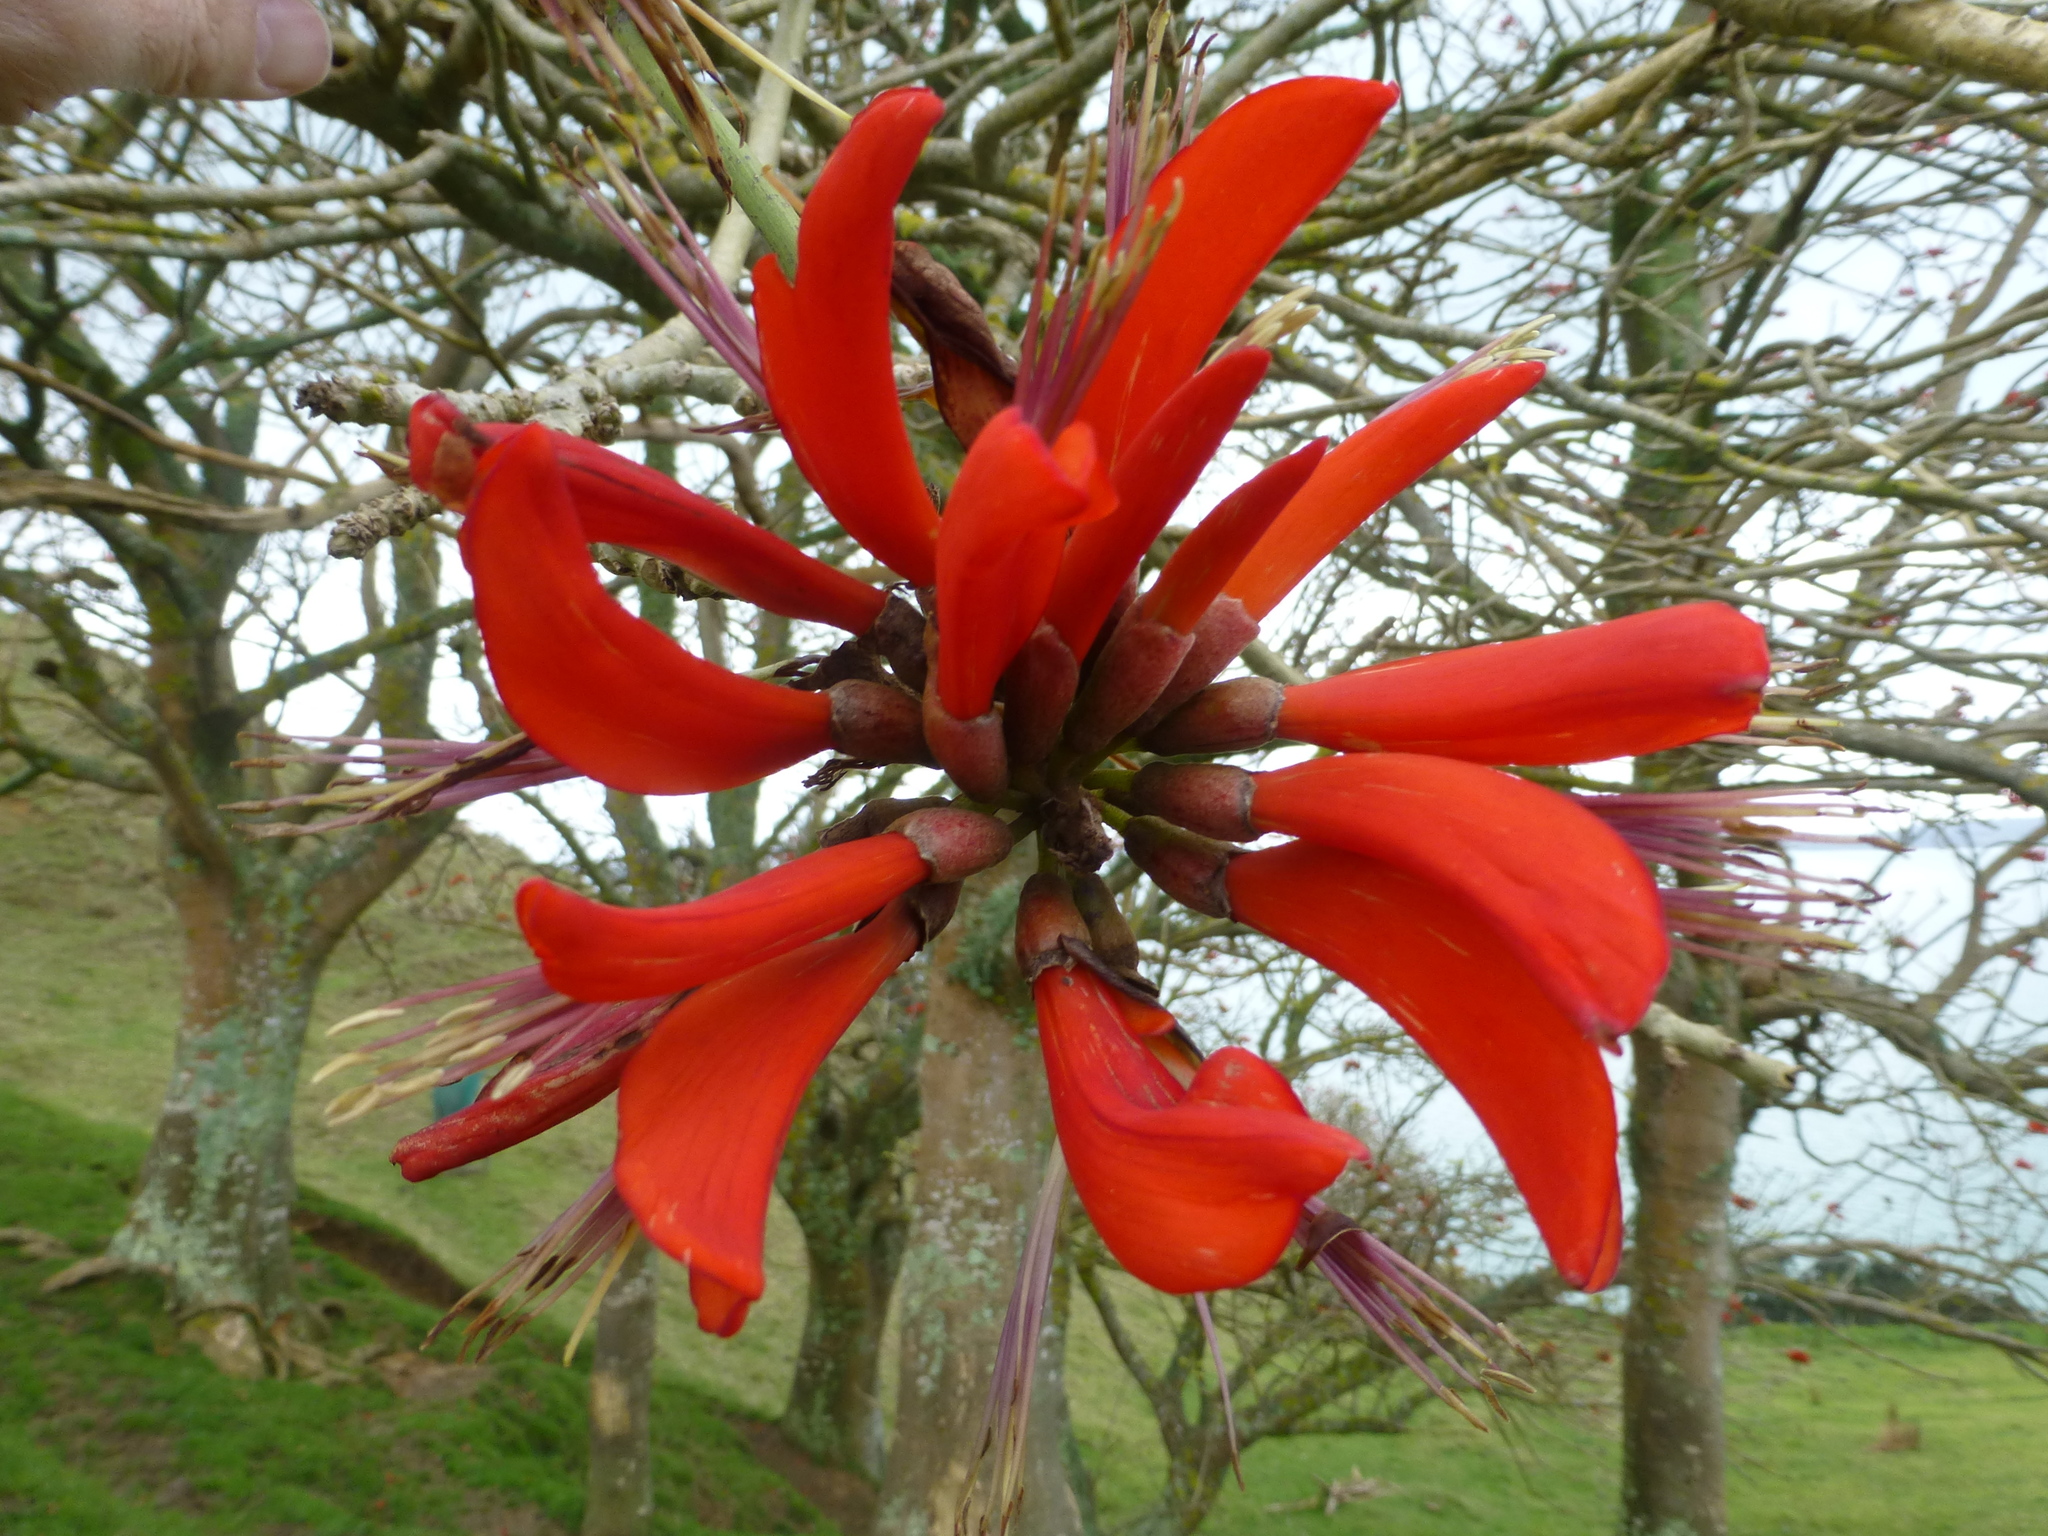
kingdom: Plantae
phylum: Tracheophyta
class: Magnoliopsida
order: Fabales
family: Fabaceae
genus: Erythrina
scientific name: Erythrina sykesii
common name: Coraltree
